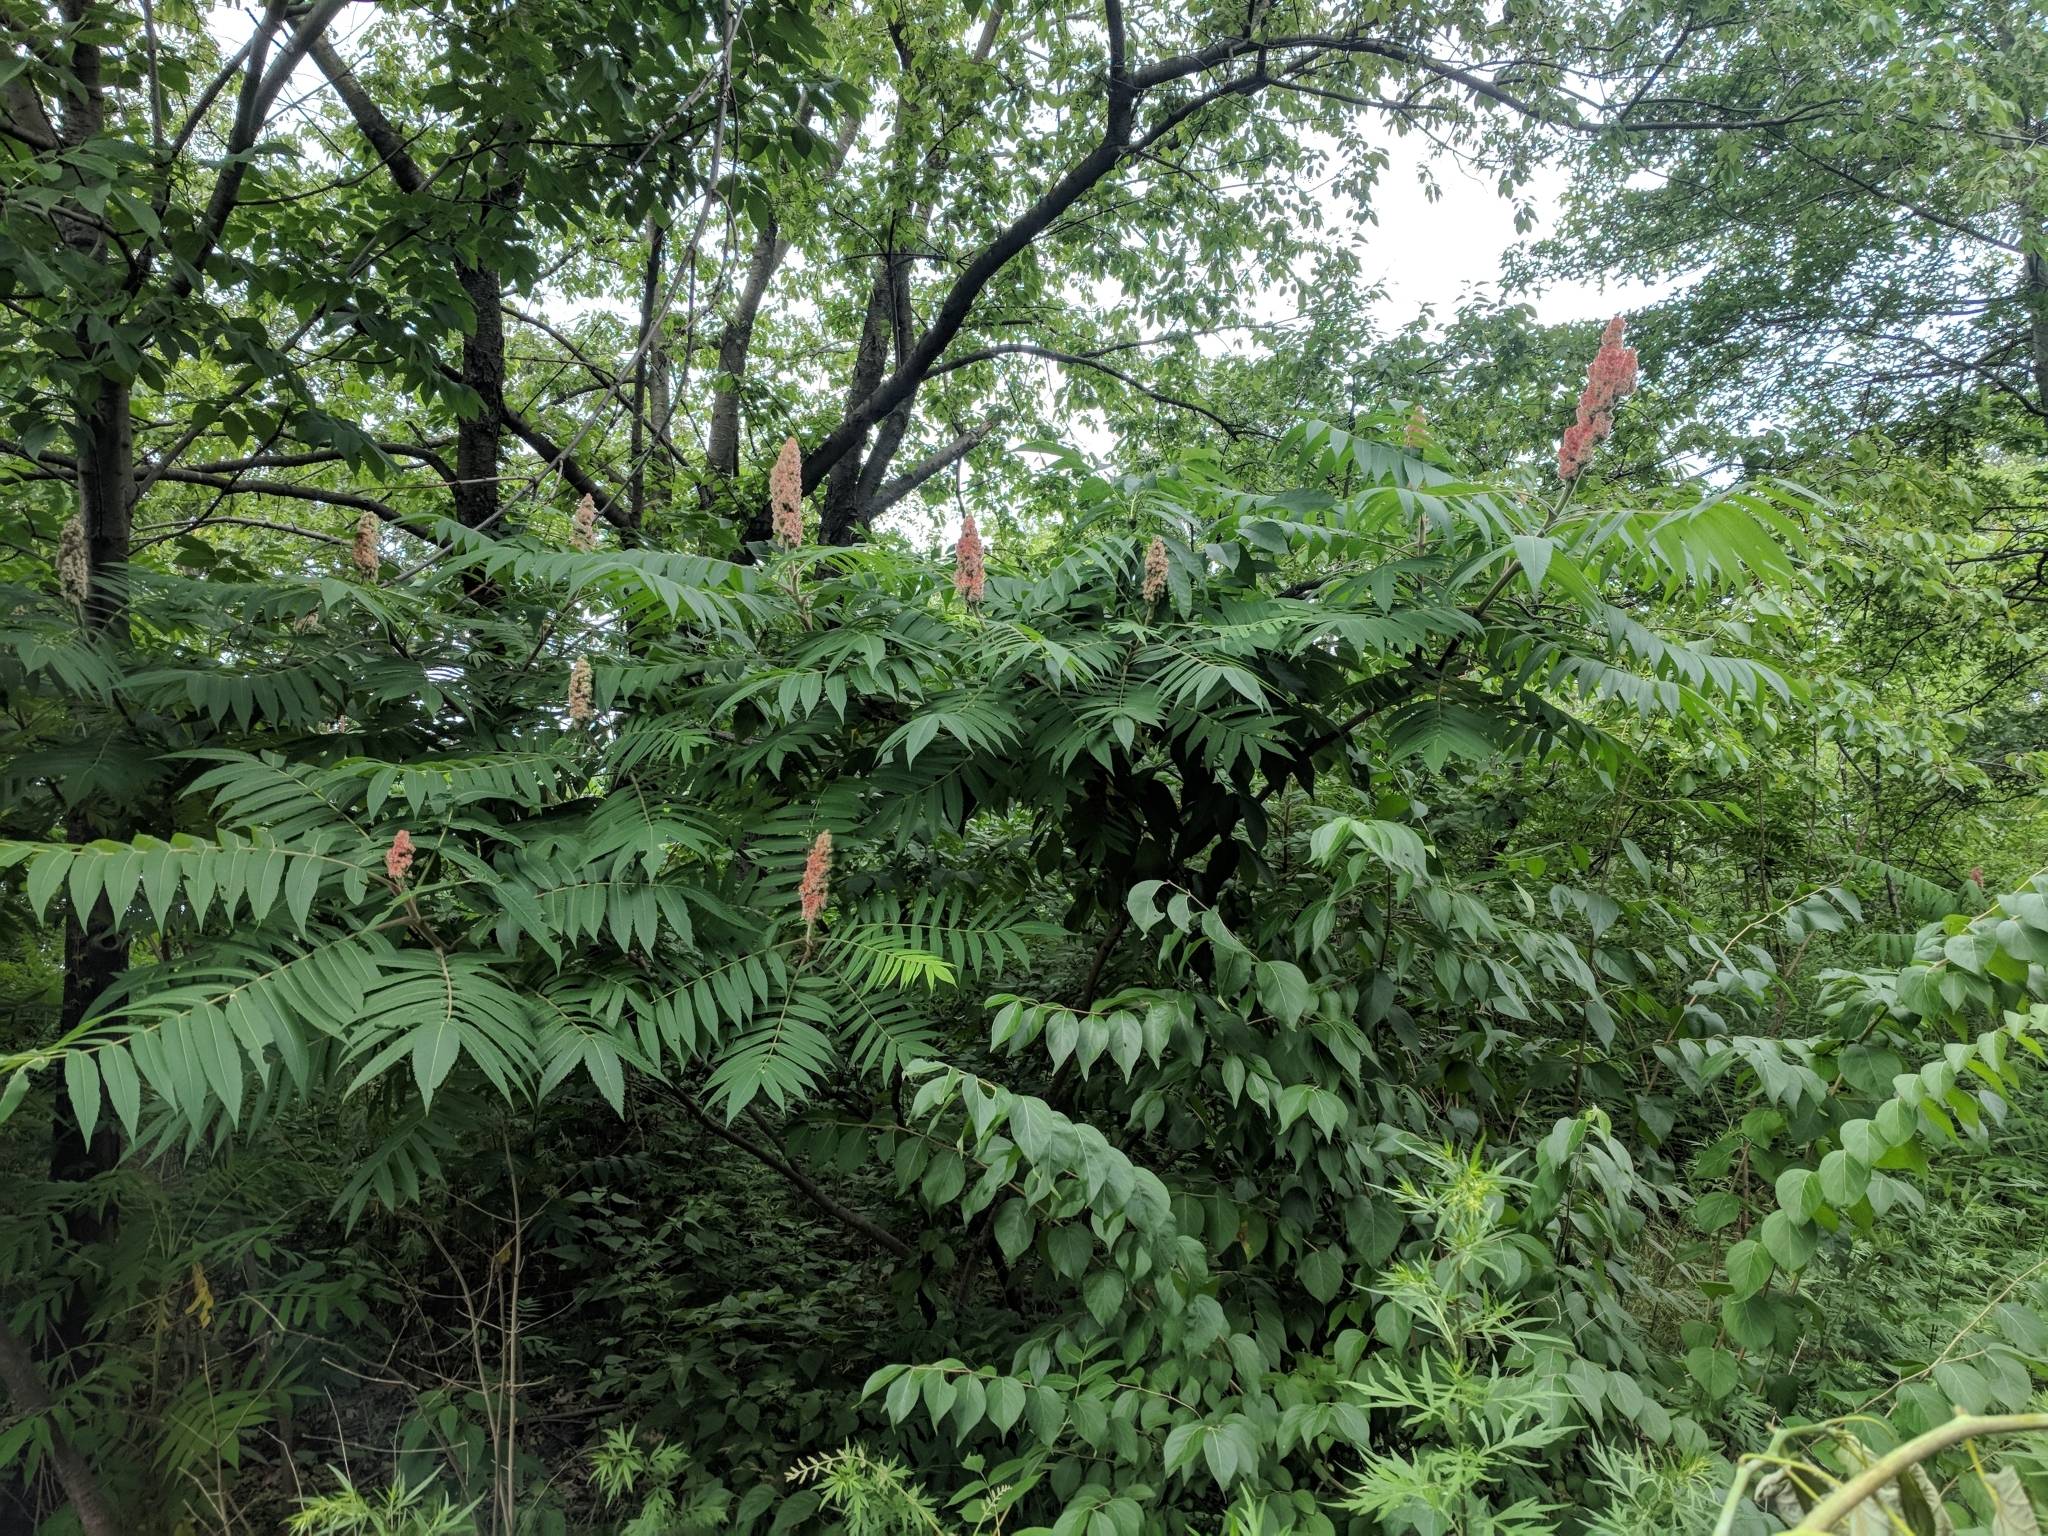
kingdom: Plantae
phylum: Tracheophyta
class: Magnoliopsida
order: Sapindales
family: Anacardiaceae
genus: Rhus
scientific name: Rhus typhina
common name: Staghorn sumac
